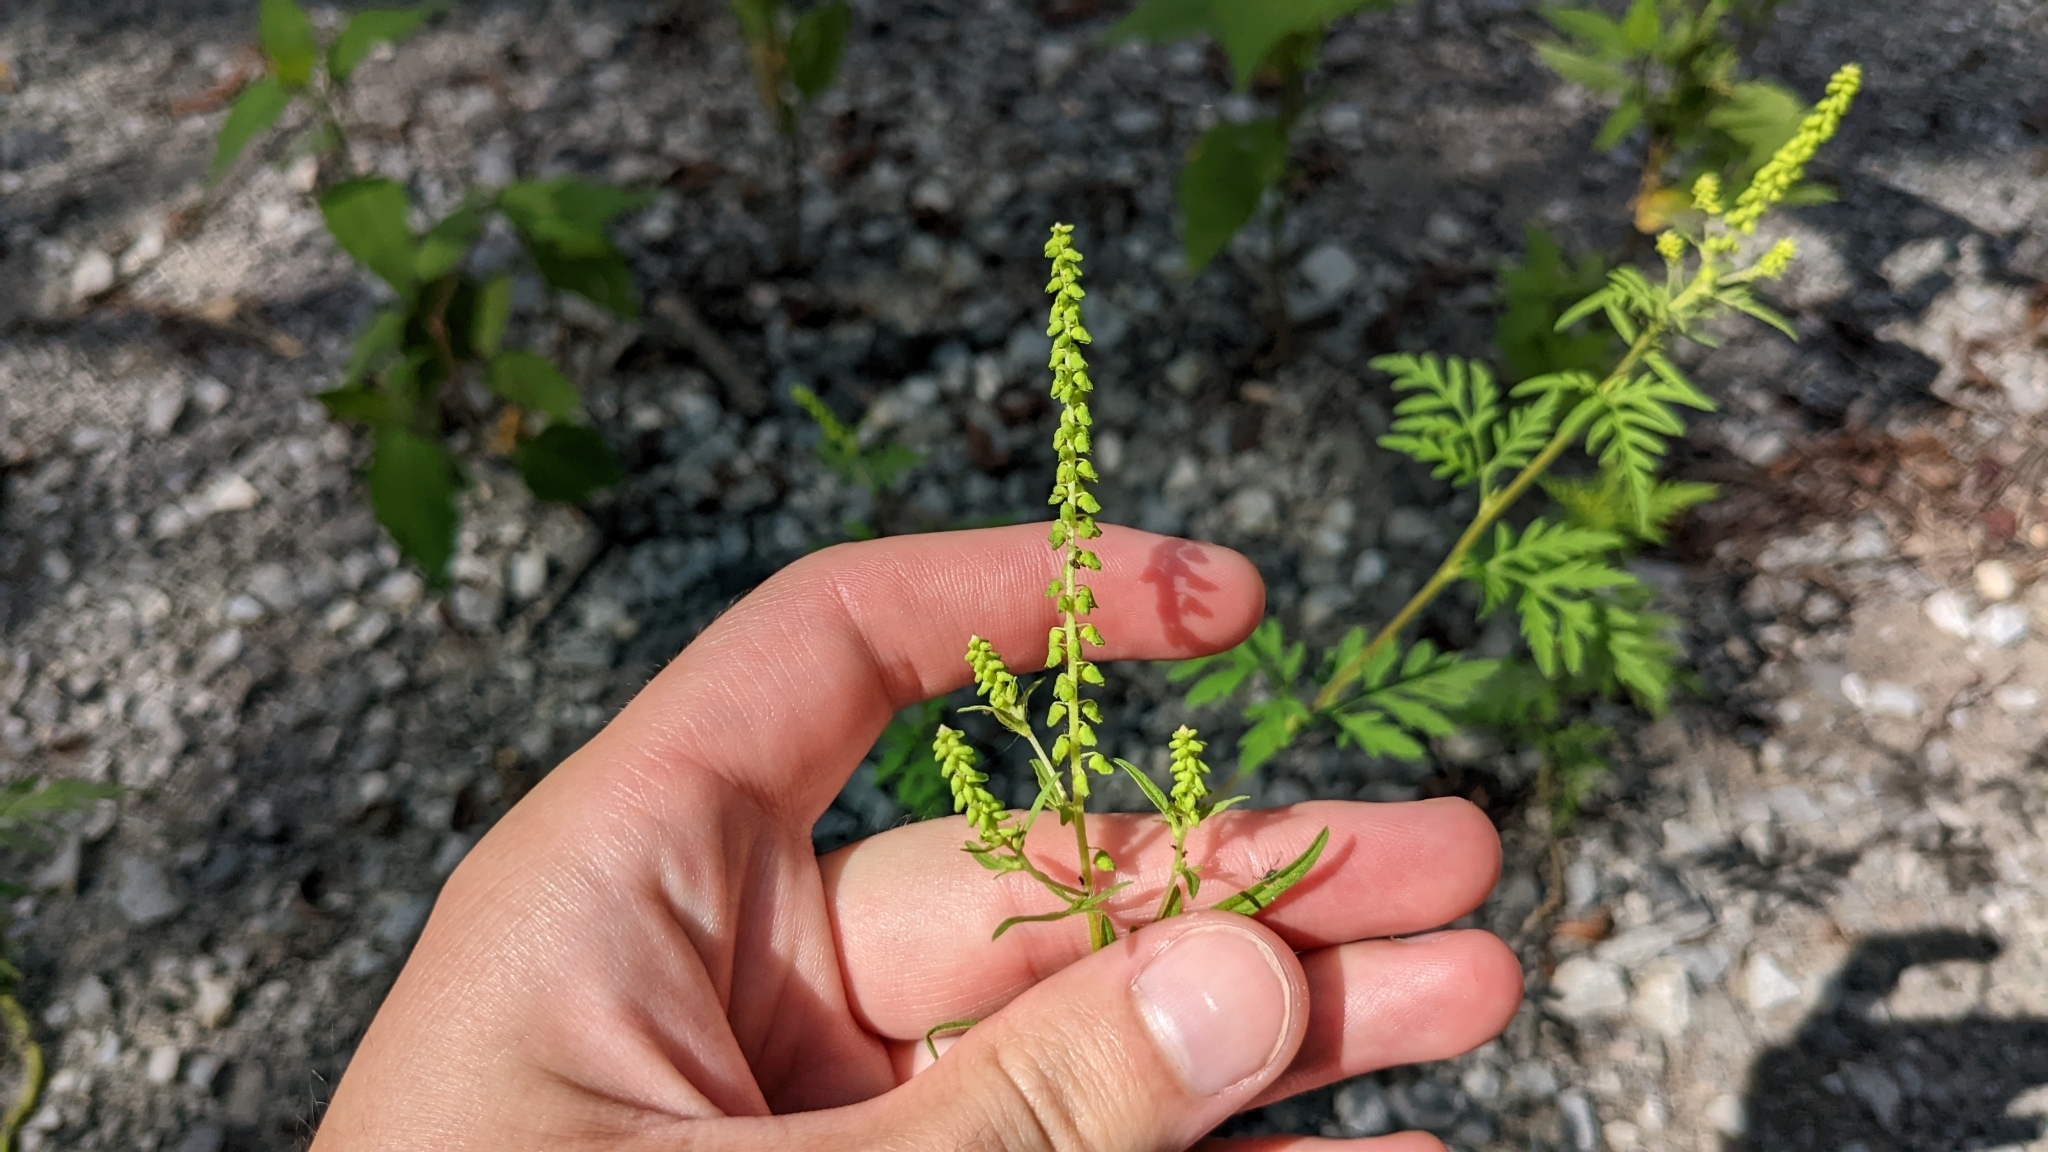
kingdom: Plantae
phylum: Tracheophyta
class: Magnoliopsida
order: Asterales
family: Asteraceae
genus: Ambrosia
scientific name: Ambrosia artemisiifolia
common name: Annual ragweed
